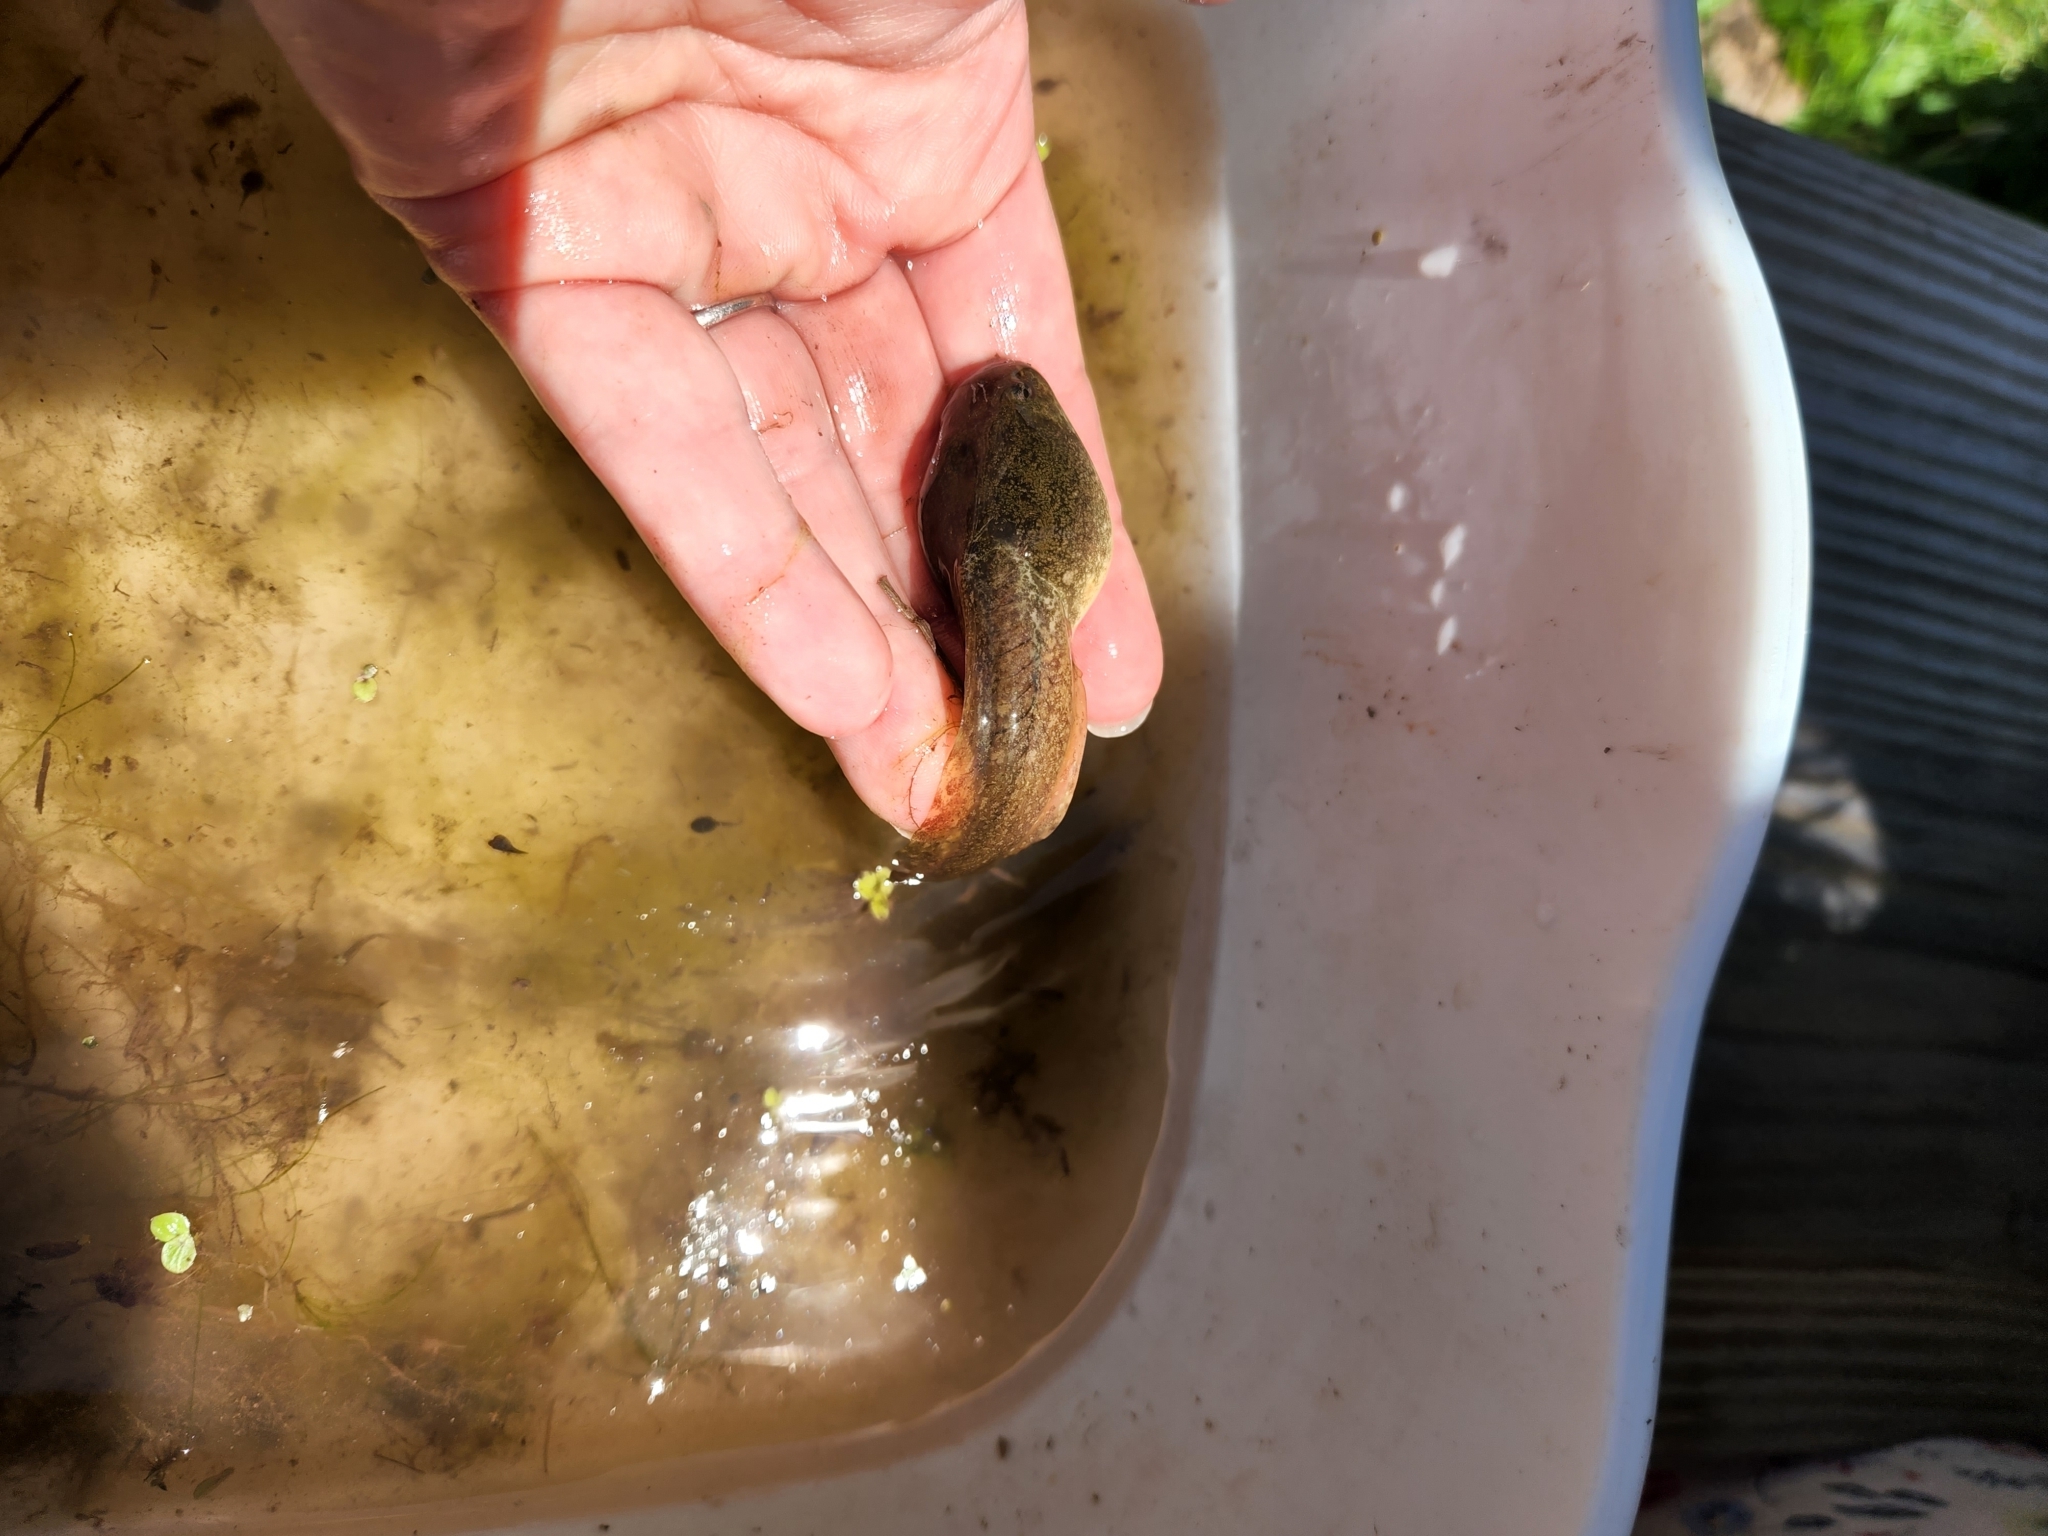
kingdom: Animalia
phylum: Chordata
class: Amphibia
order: Anura
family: Ranidae
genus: Lithobates
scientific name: Lithobates catesbeianus
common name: American bullfrog
